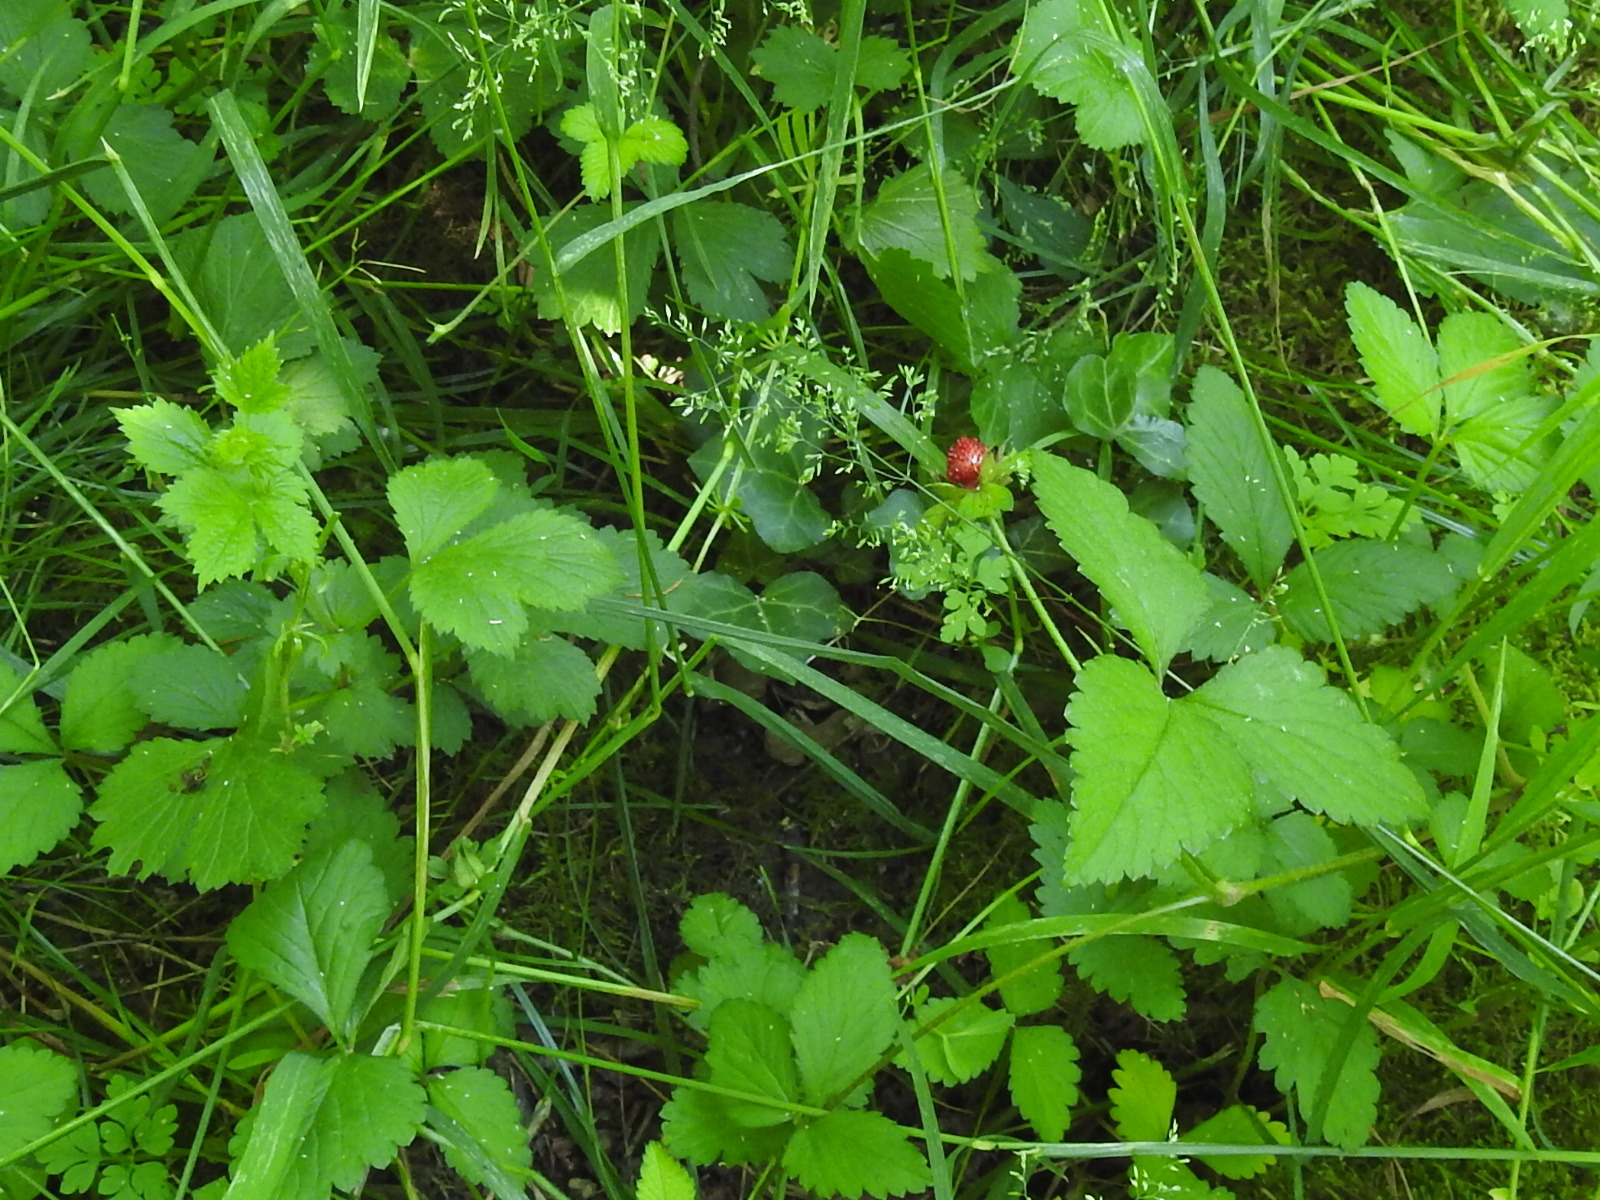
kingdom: Plantae
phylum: Tracheophyta
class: Magnoliopsida
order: Rosales
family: Rosaceae
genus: Potentilla
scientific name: Potentilla indica
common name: Yellow-flowered strawberry
